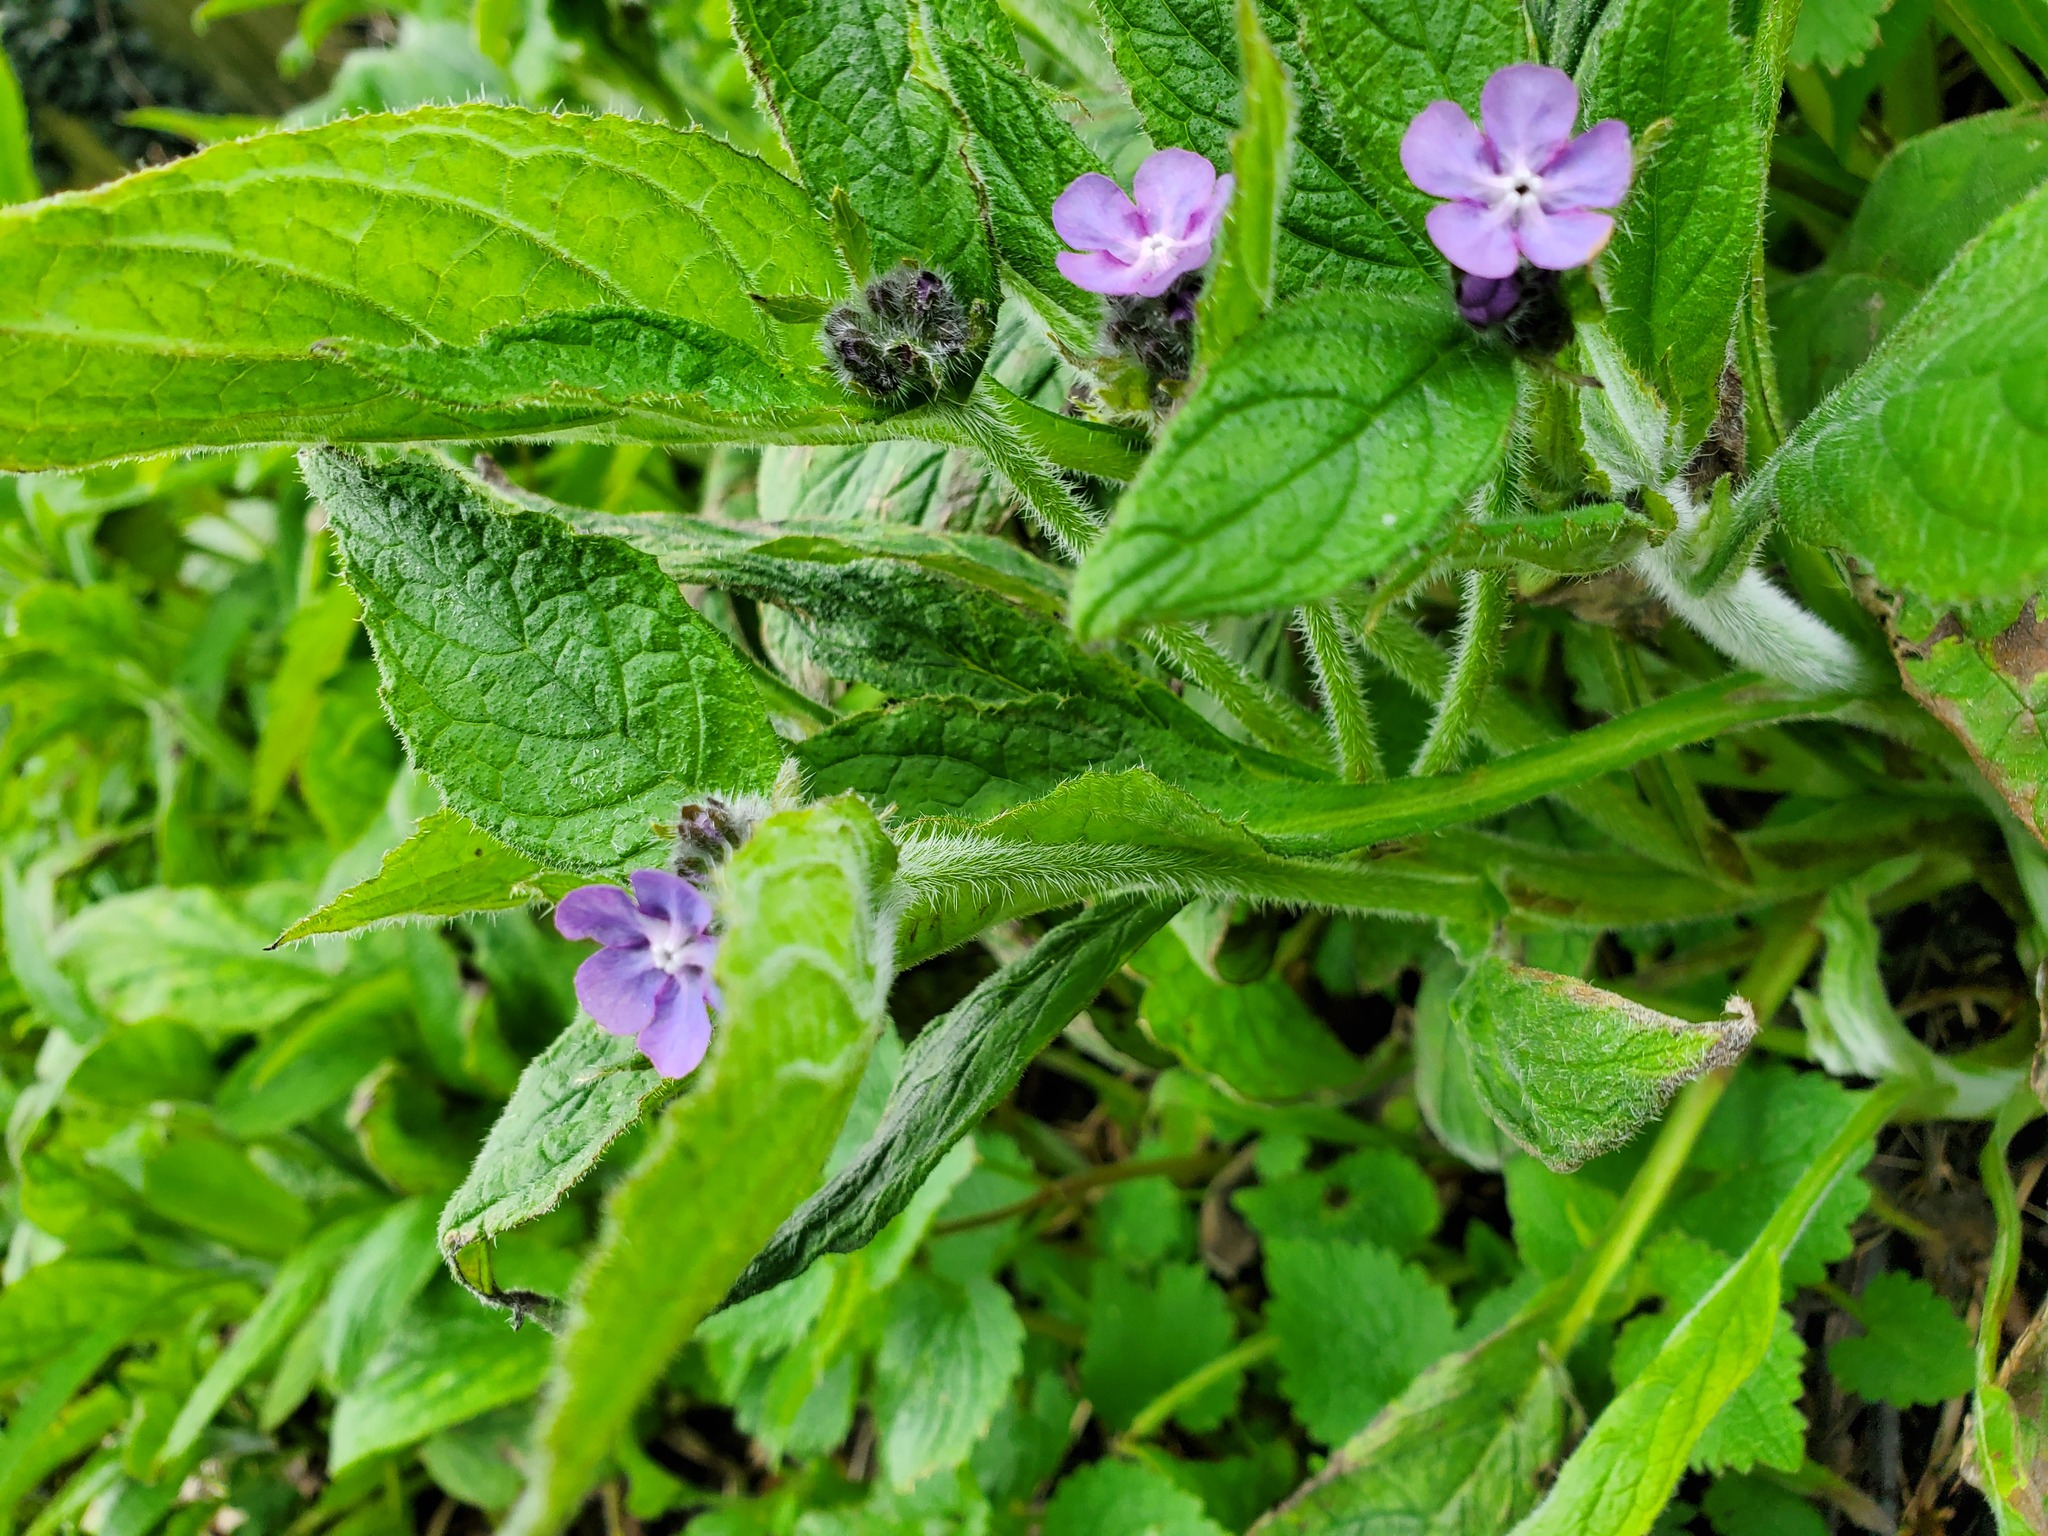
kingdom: Plantae
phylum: Tracheophyta
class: Magnoliopsida
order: Boraginales
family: Boraginaceae
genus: Pentaglottis
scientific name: Pentaglottis sempervirens
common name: Green alkanet
